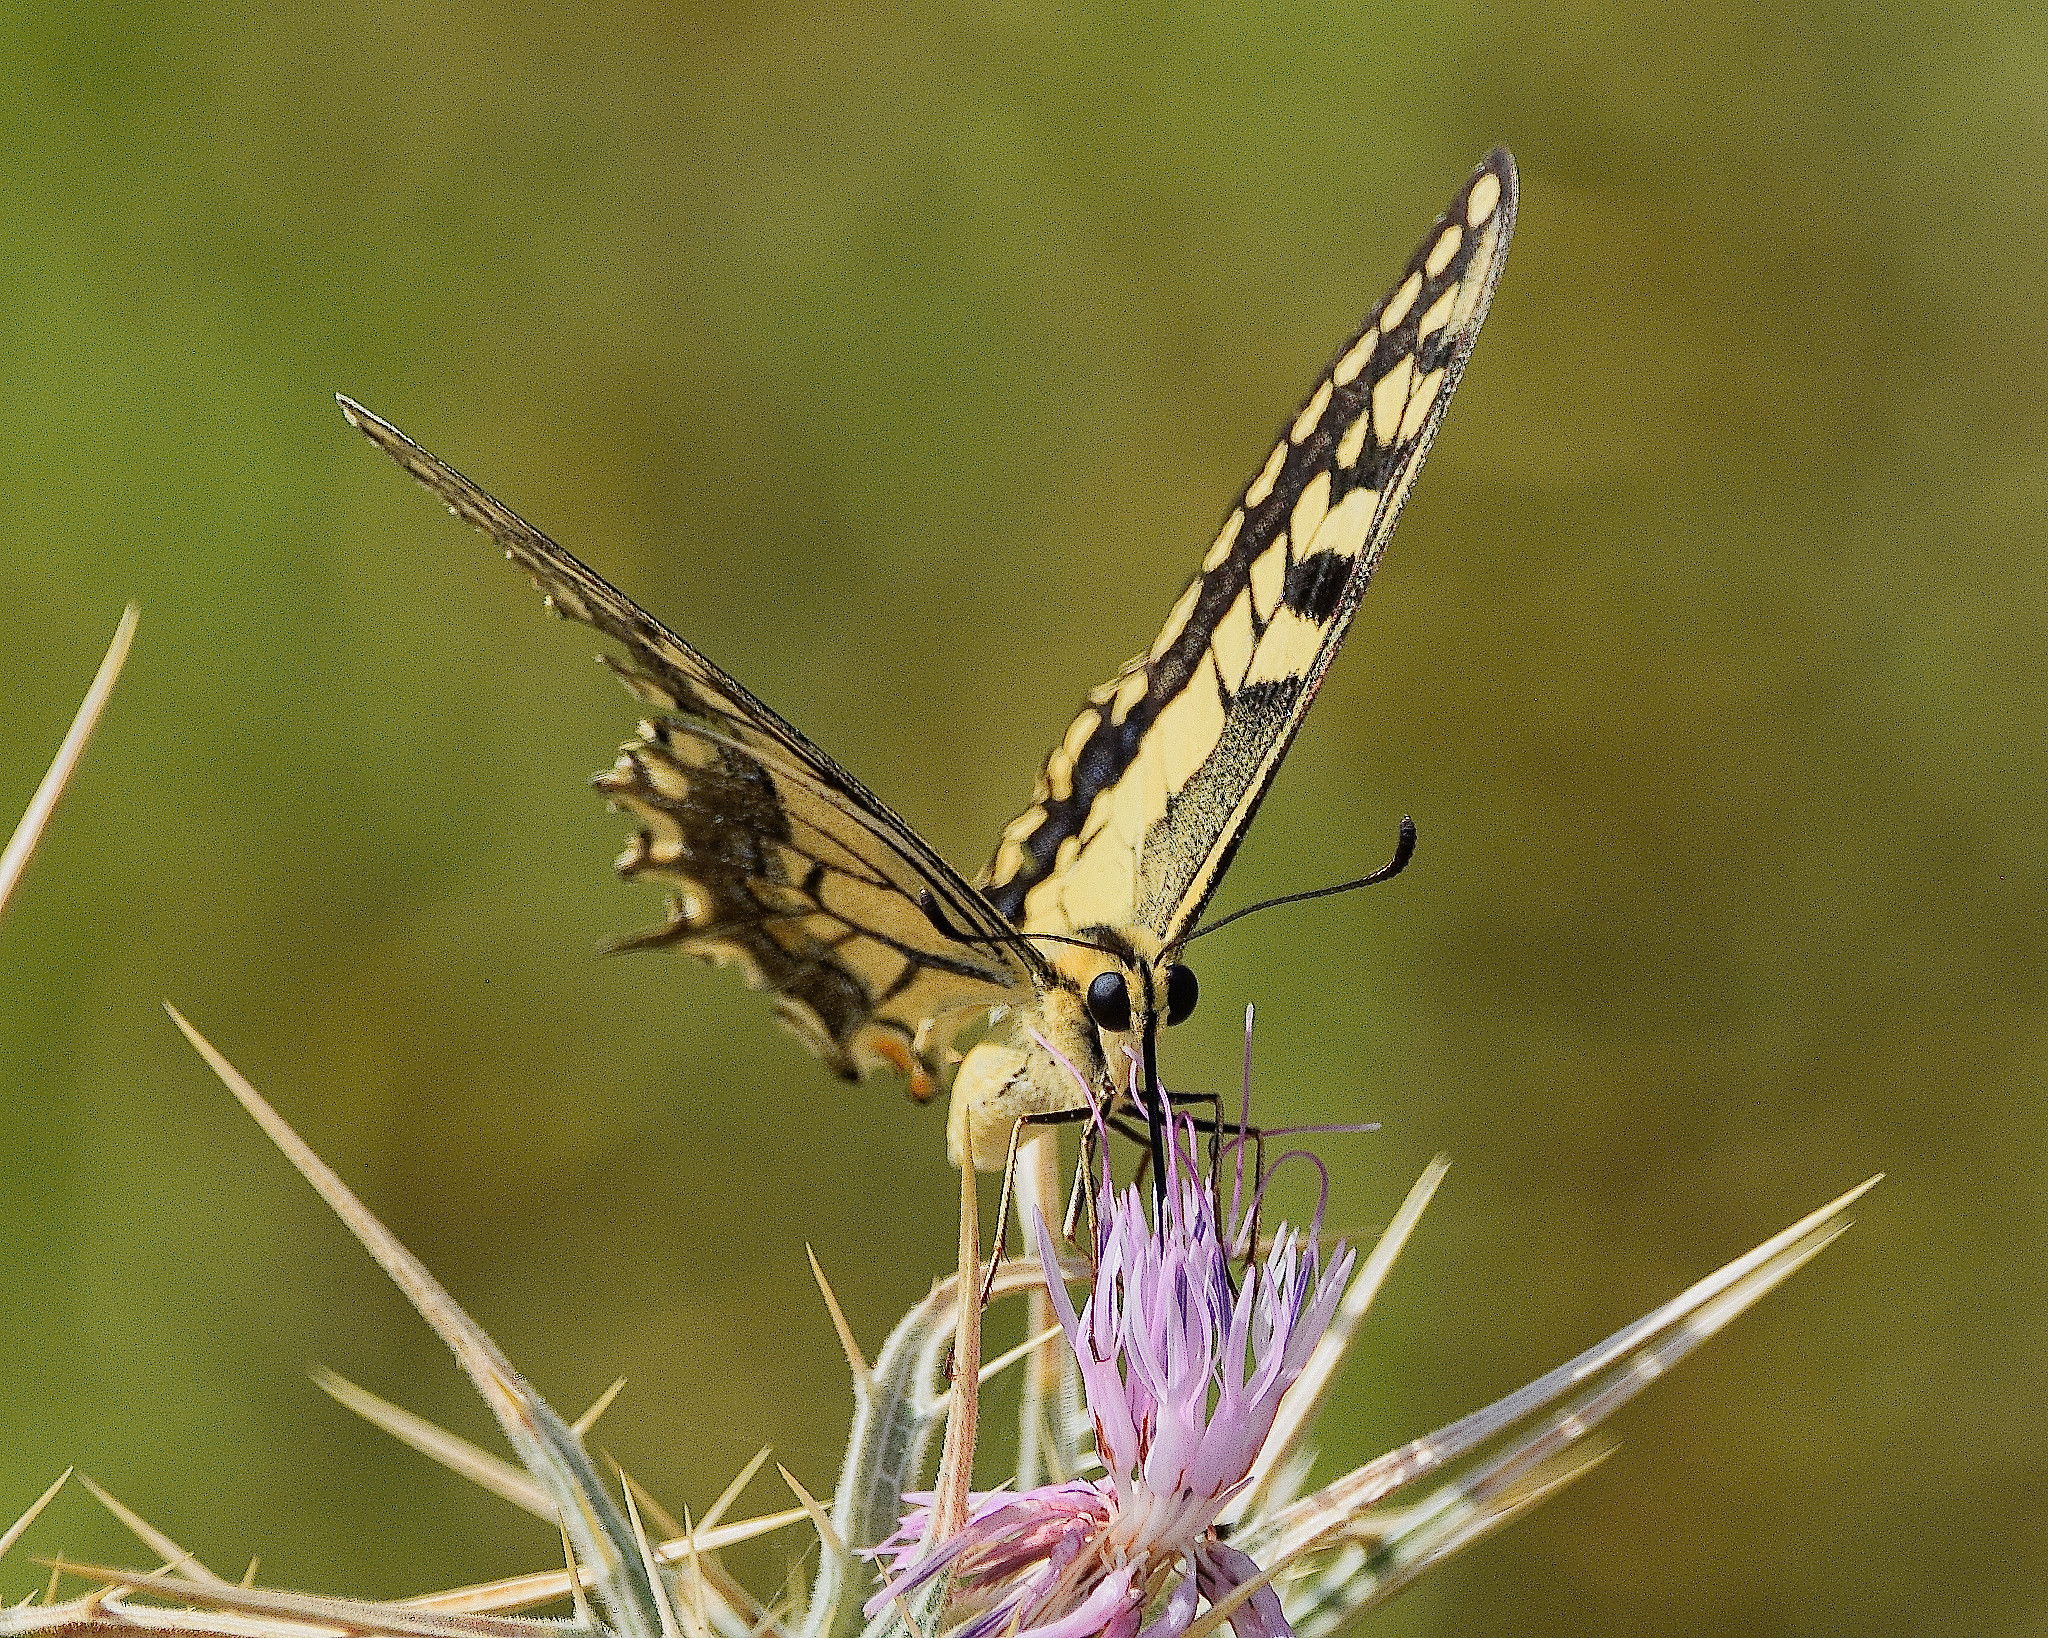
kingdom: Animalia
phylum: Arthropoda
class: Insecta
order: Lepidoptera
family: Papilionidae
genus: Papilio
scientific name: Papilio machaon
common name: Swallowtail
